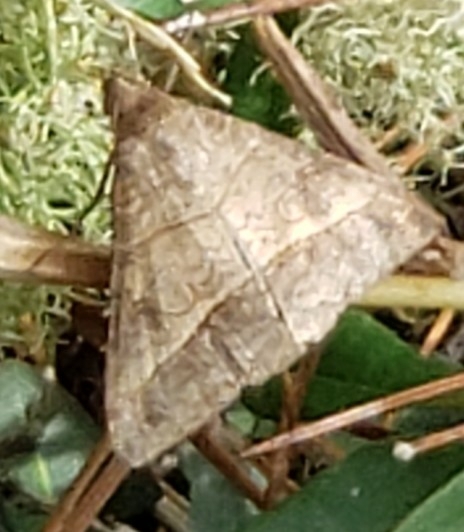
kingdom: Animalia
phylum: Arthropoda
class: Insecta
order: Lepidoptera
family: Erebidae
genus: Mocis
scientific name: Mocis latipes
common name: Striped grass looper
